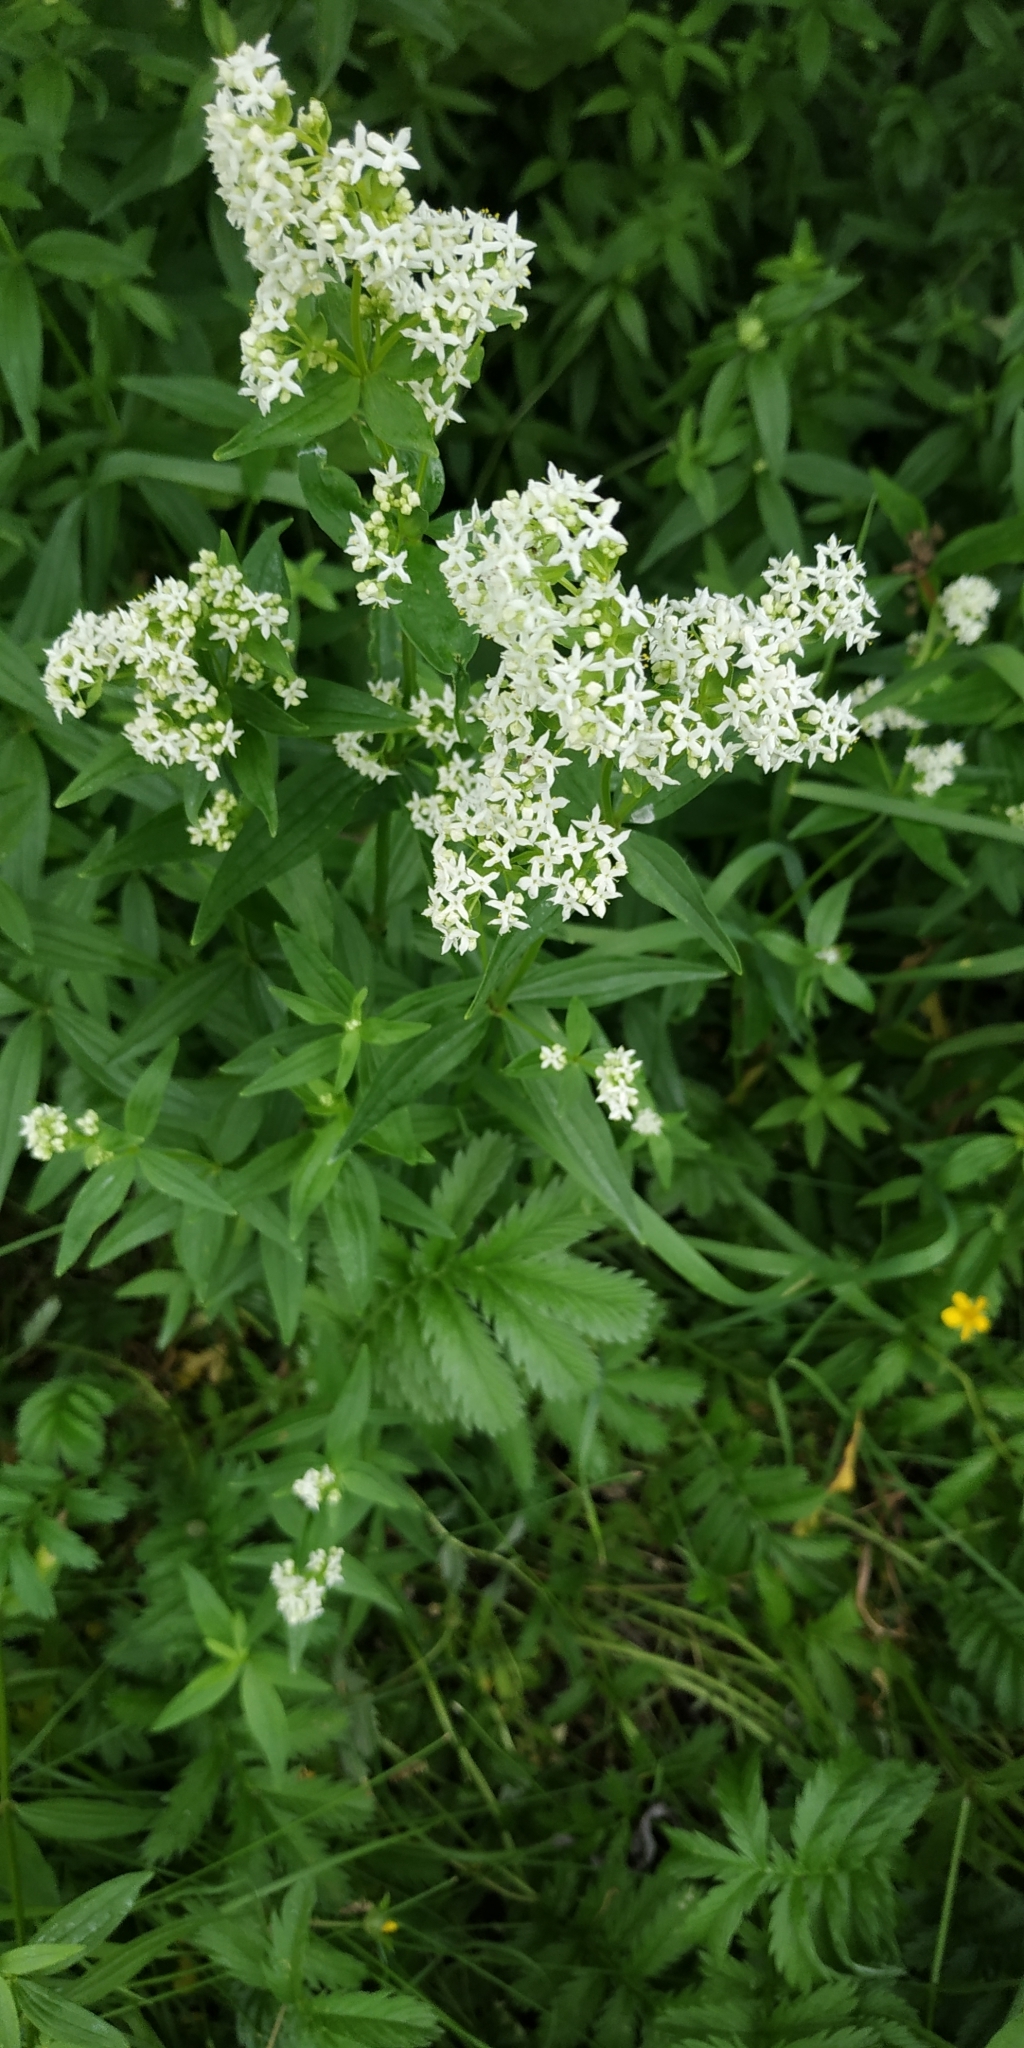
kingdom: Plantae
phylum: Tracheophyta
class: Magnoliopsida
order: Gentianales
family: Rubiaceae
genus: Galium
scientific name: Galium boreale
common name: Northern bedstraw
